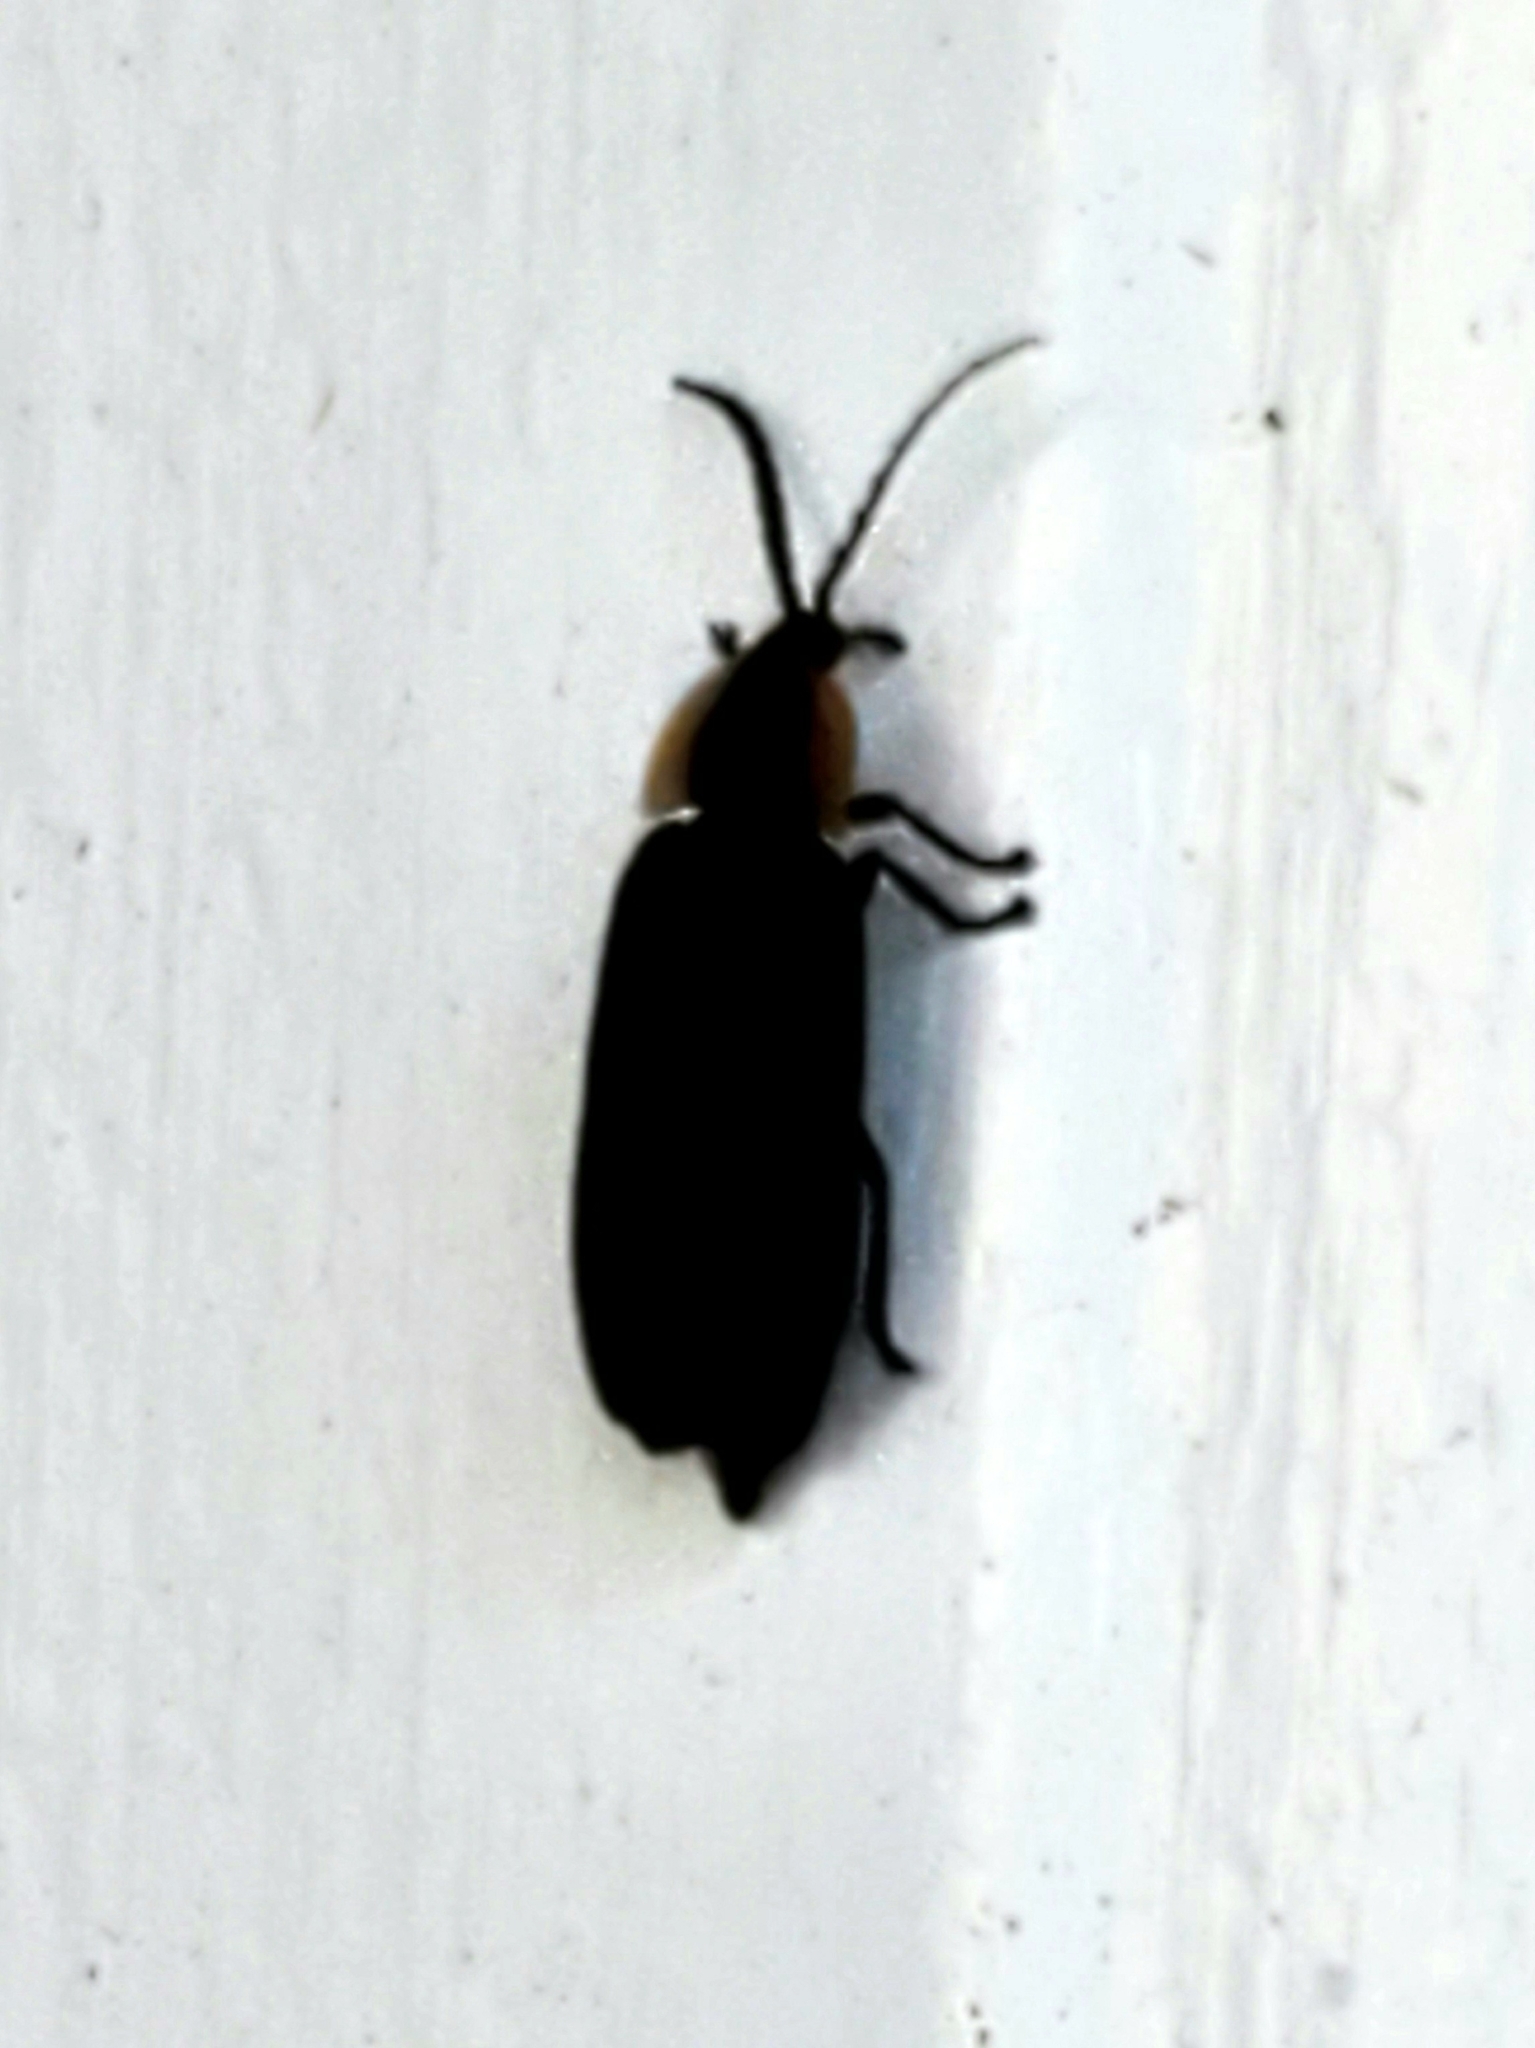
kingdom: Animalia
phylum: Arthropoda
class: Insecta
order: Coleoptera
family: Lampyridae
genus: Lucidota
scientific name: Lucidota atra
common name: Black firefly
